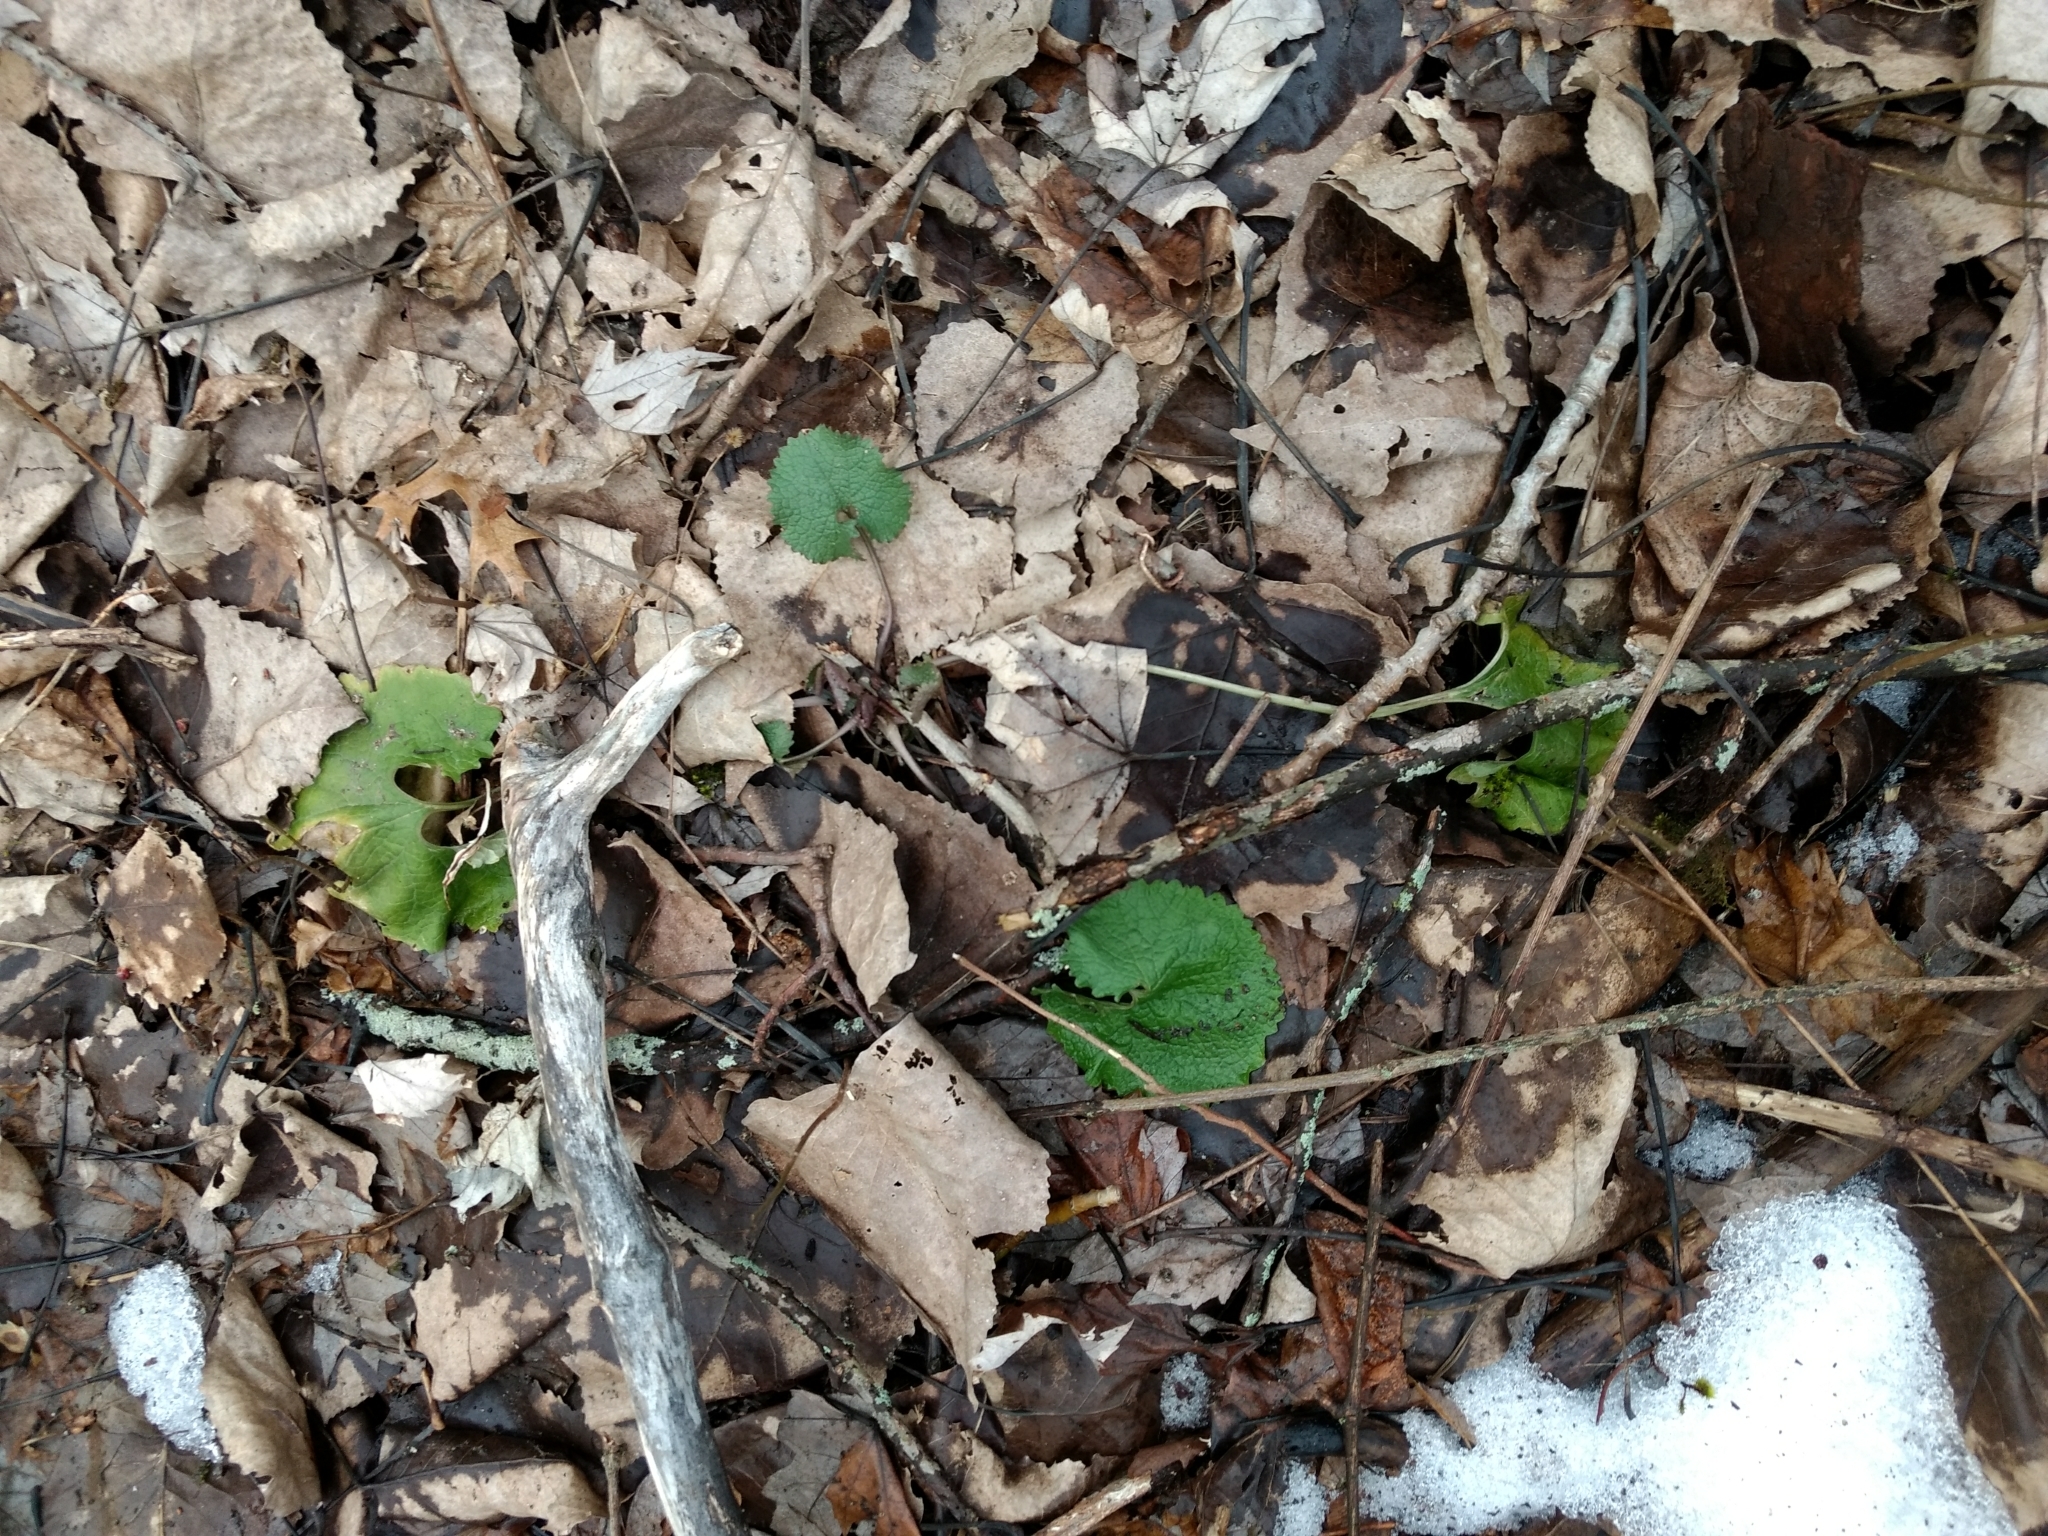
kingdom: Plantae
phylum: Tracheophyta
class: Magnoliopsida
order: Brassicales
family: Brassicaceae
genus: Alliaria
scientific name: Alliaria petiolata
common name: Garlic mustard
